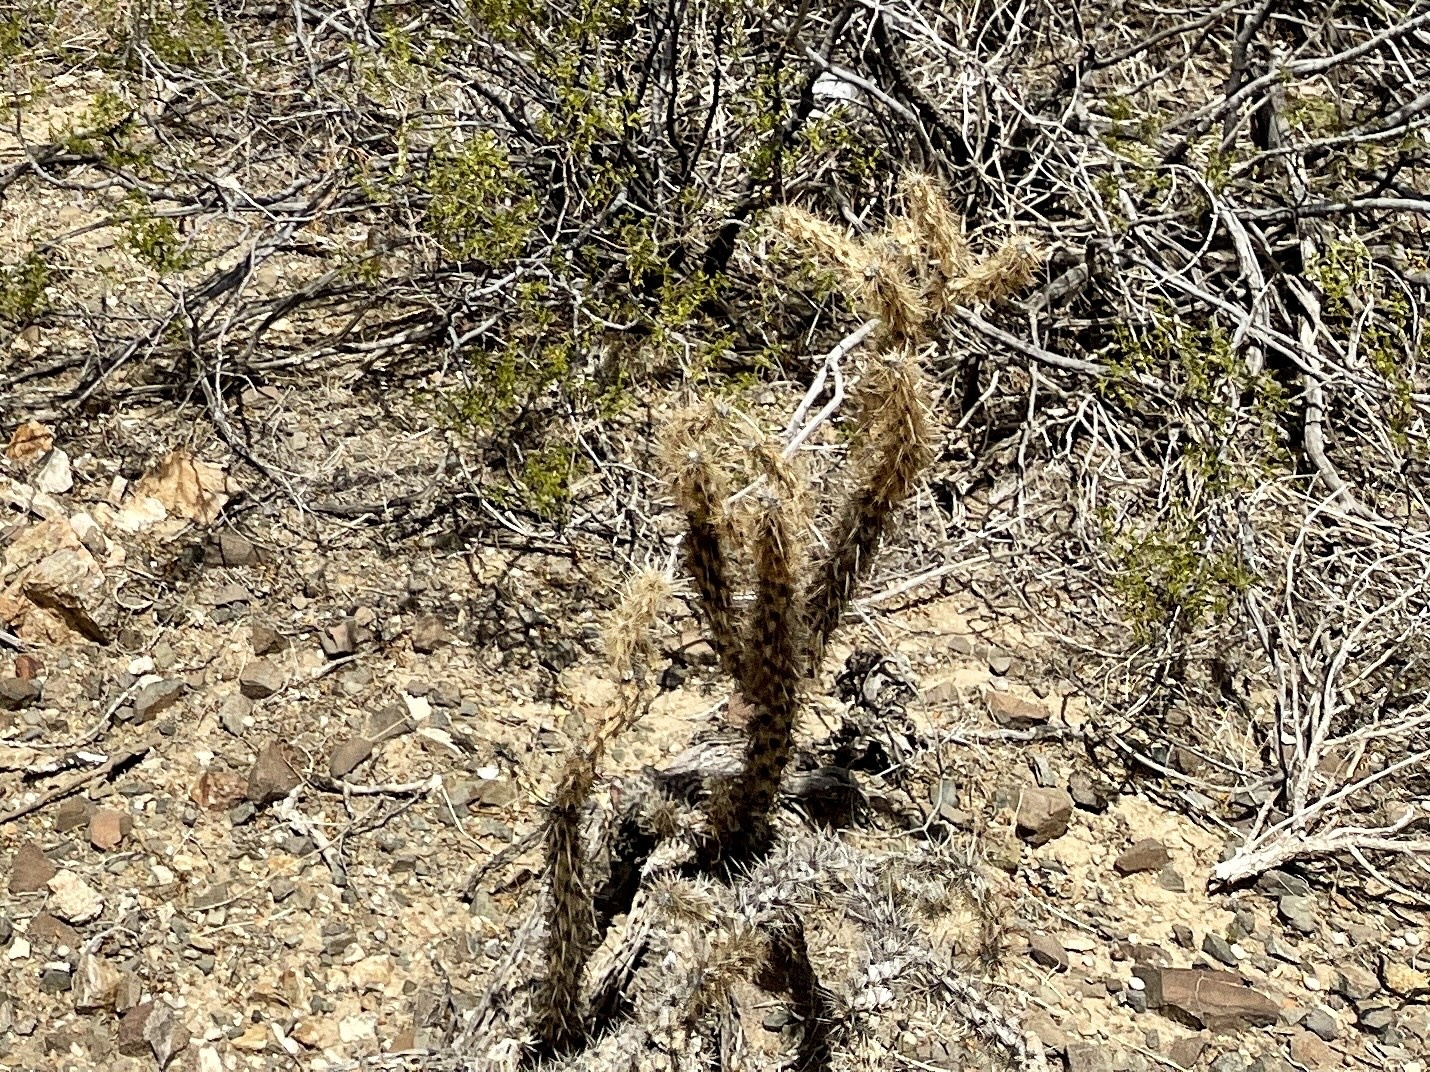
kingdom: Plantae
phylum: Tracheophyta
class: Magnoliopsida
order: Caryophyllales
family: Cactaceae
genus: Cylindropuntia
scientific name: Cylindropuntia acanthocarpa
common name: Buckhorn cholla
